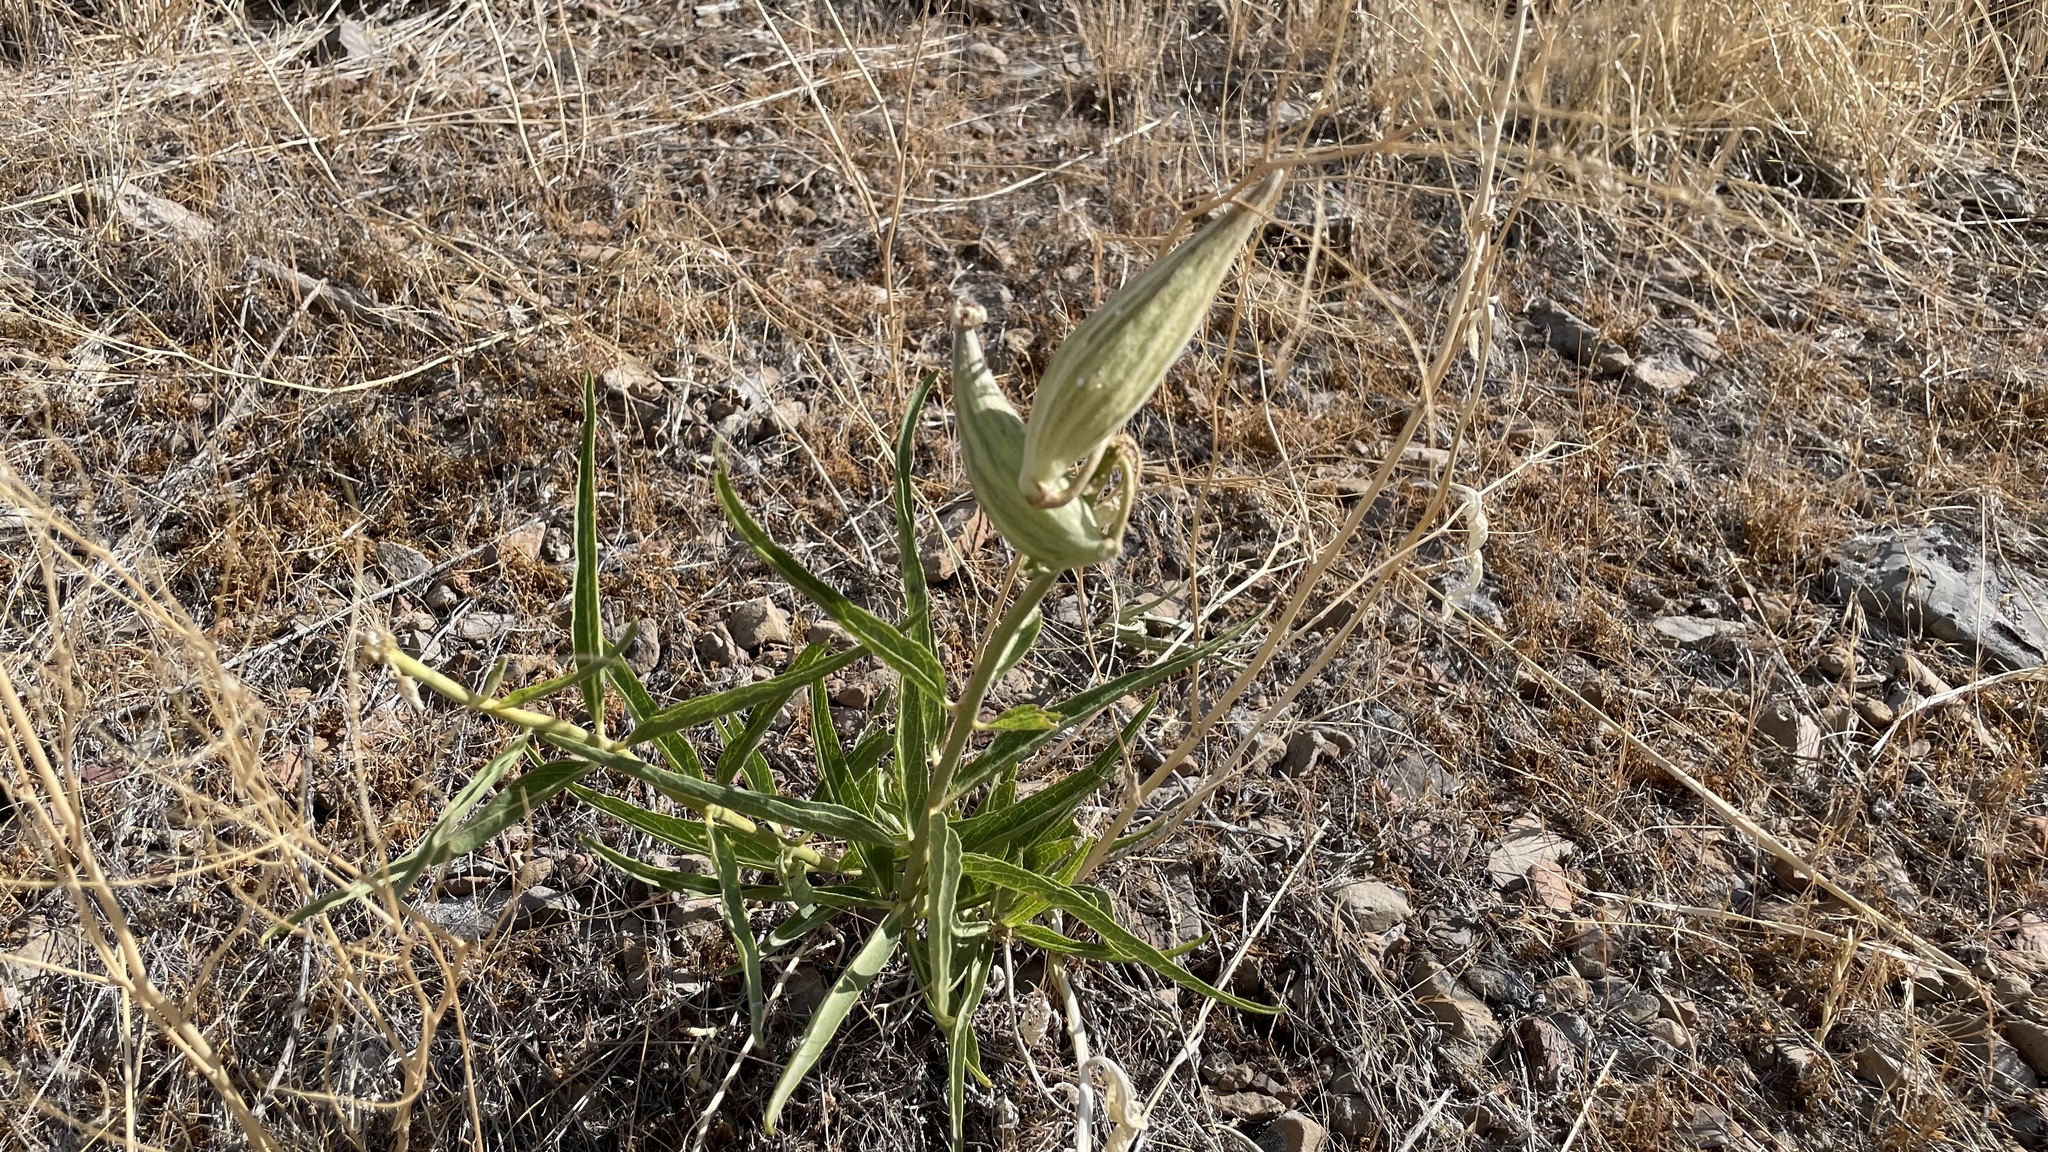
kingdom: Plantae
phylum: Tracheophyta
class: Magnoliopsida
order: Gentianales
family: Apocynaceae
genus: Asclepias
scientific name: Asclepias asperula
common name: Antelope horns
